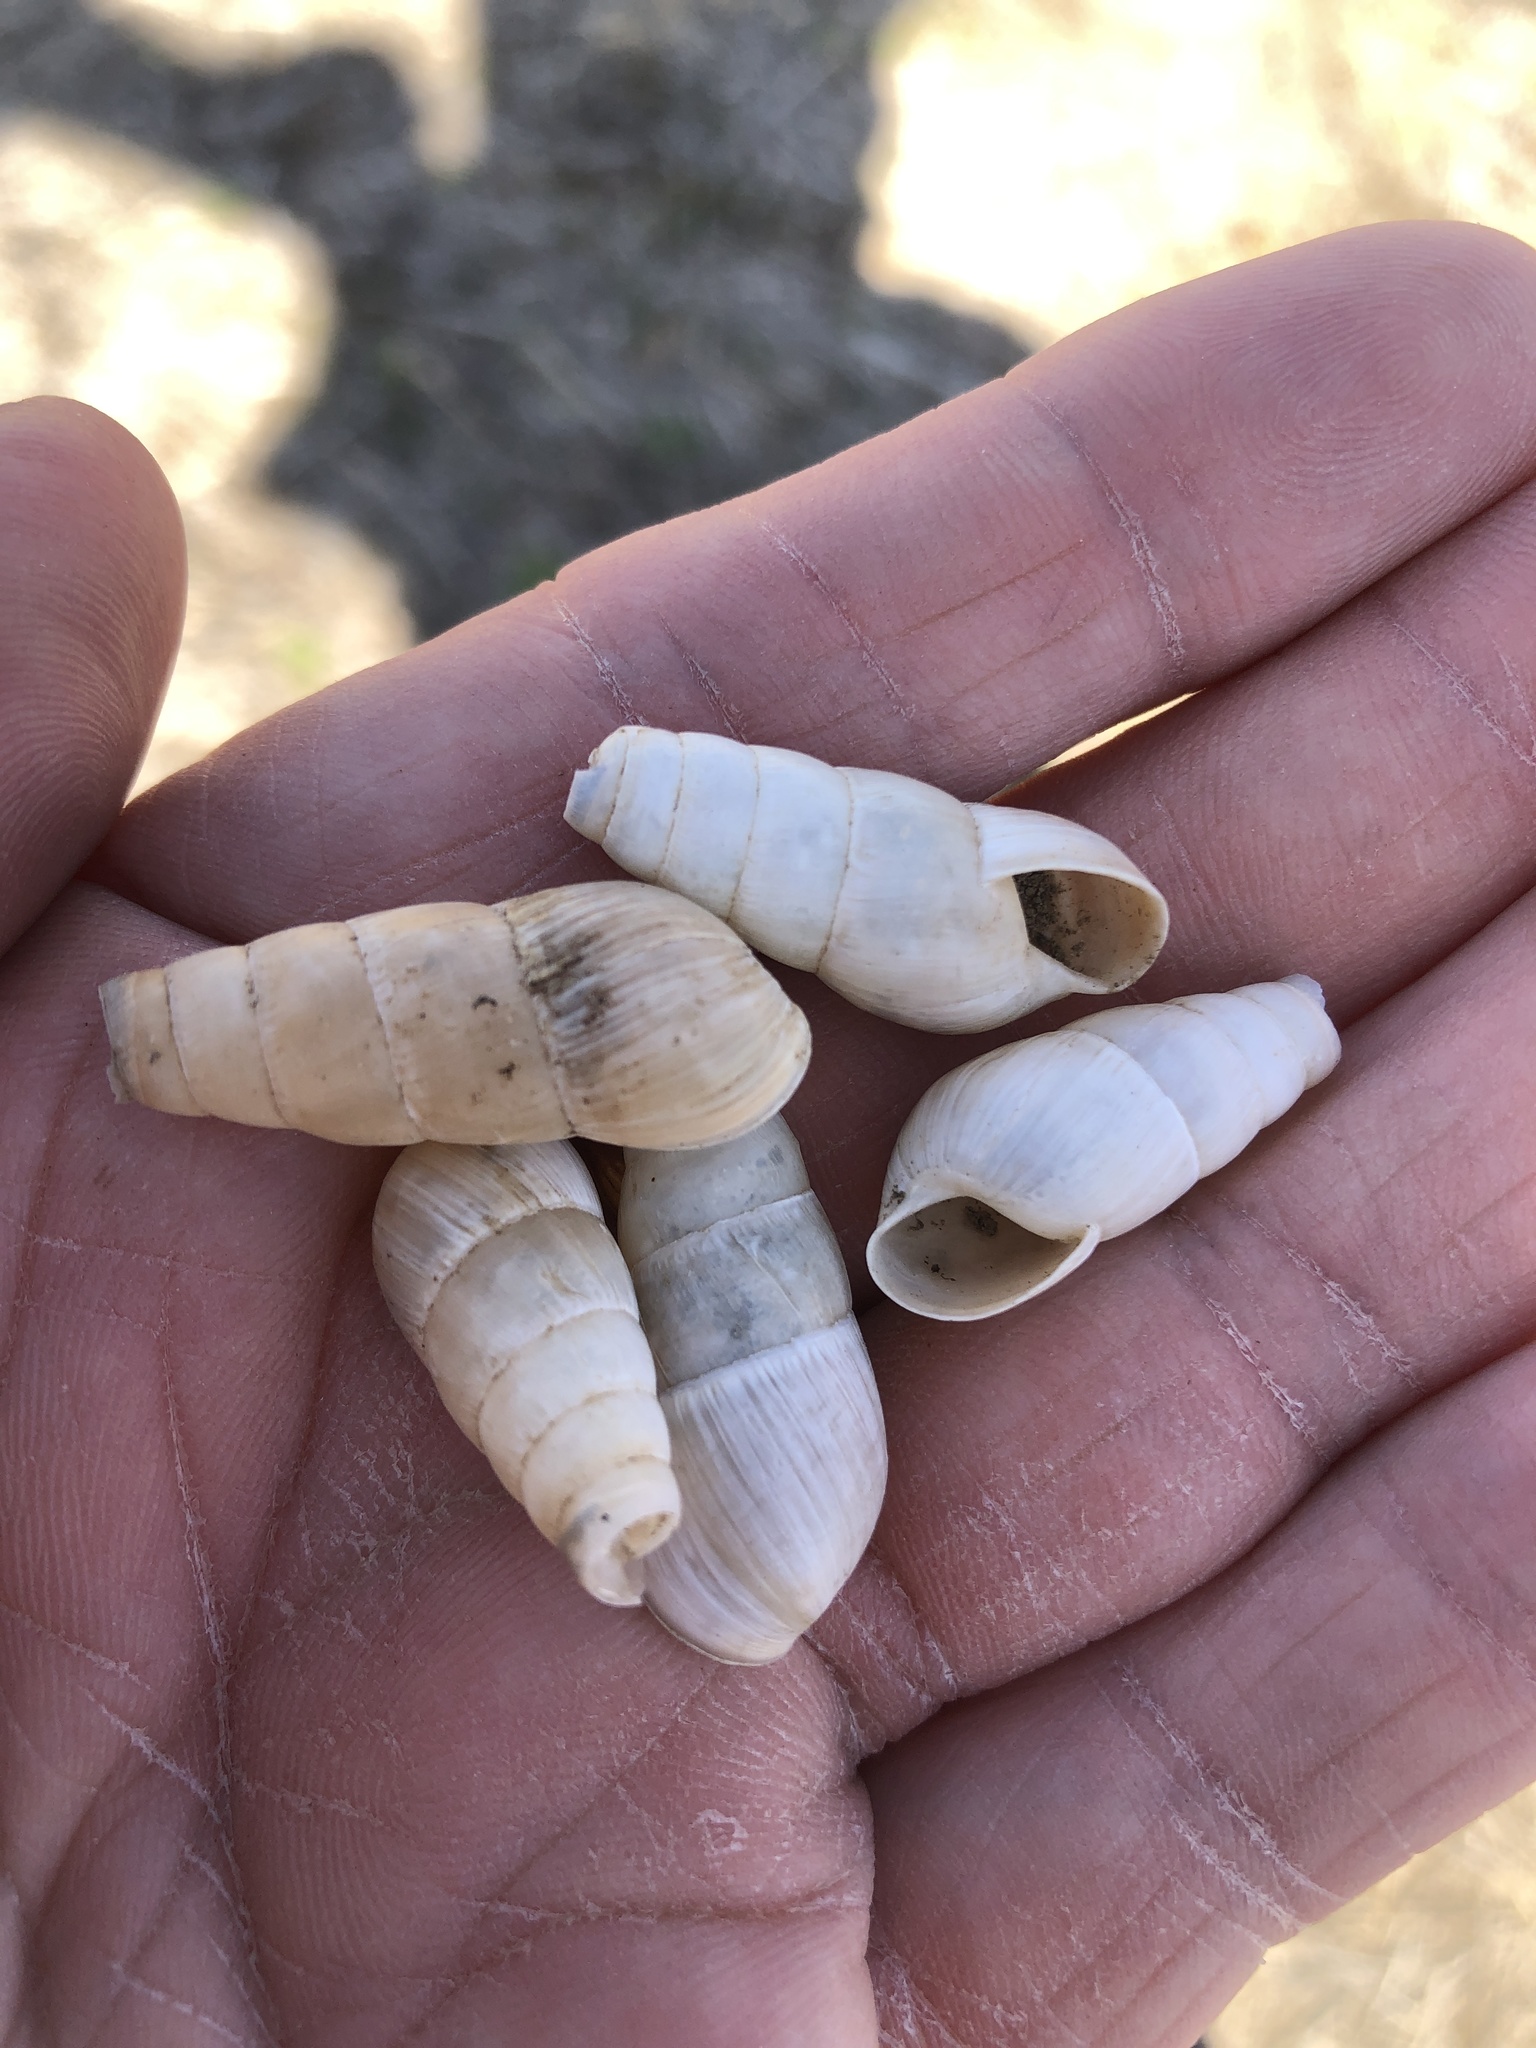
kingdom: Animalia
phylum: Mollusca
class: Gastropoda
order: Stylommatophora
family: Achatinidae
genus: Rumina
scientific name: Rumina decollata
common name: Decollate snail
